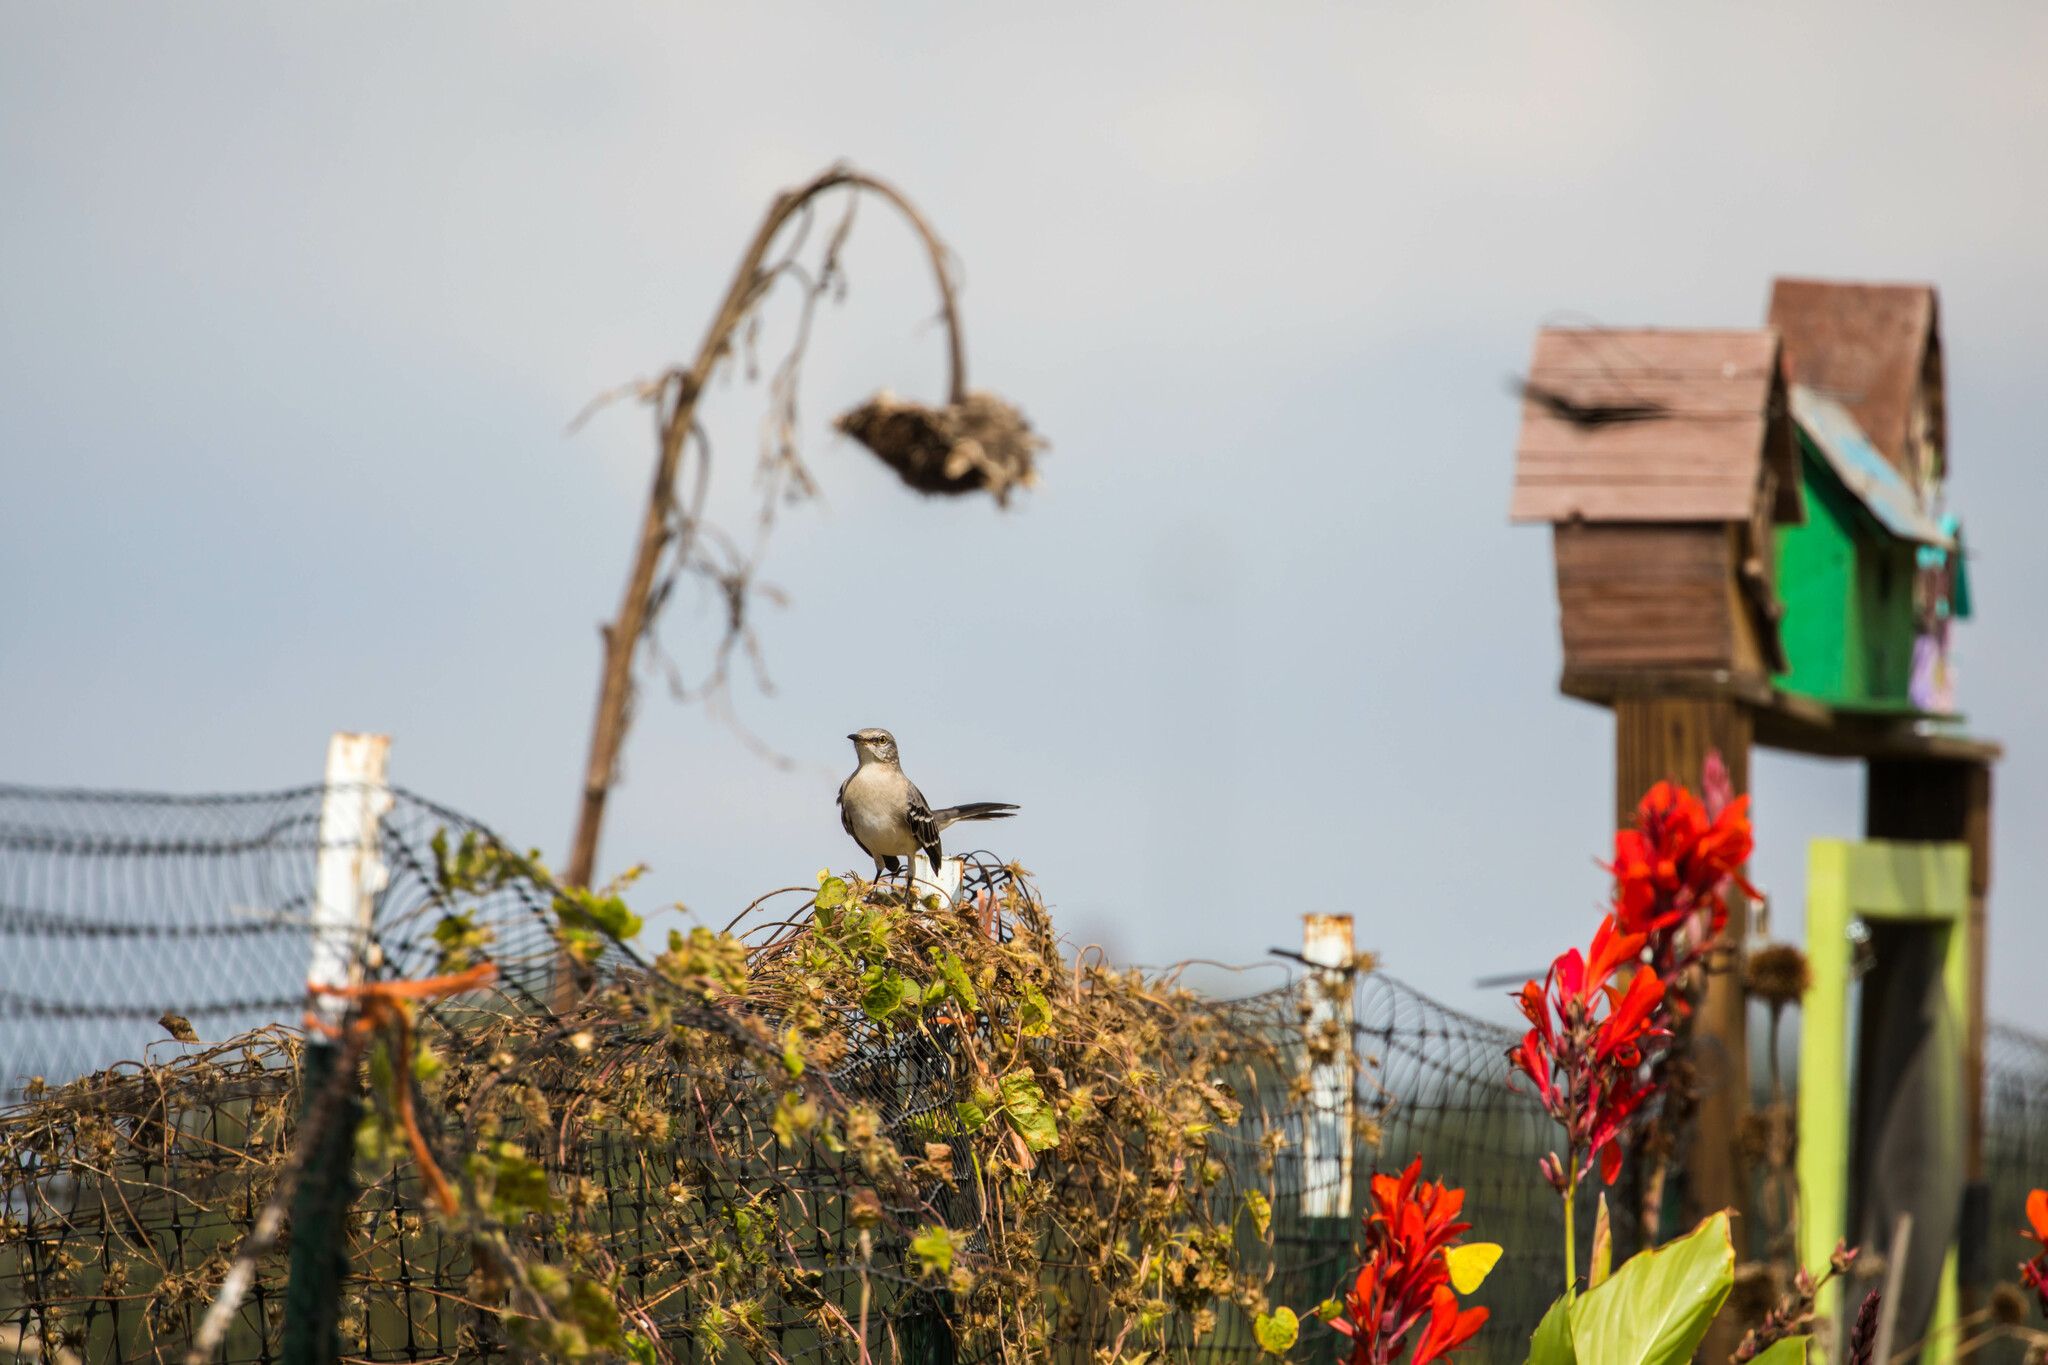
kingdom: Animalia
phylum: Chordata
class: Aves
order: Passeriformes
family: Mimidae
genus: Mimus
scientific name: Mimus polyglottos
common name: Northern mockingbird
